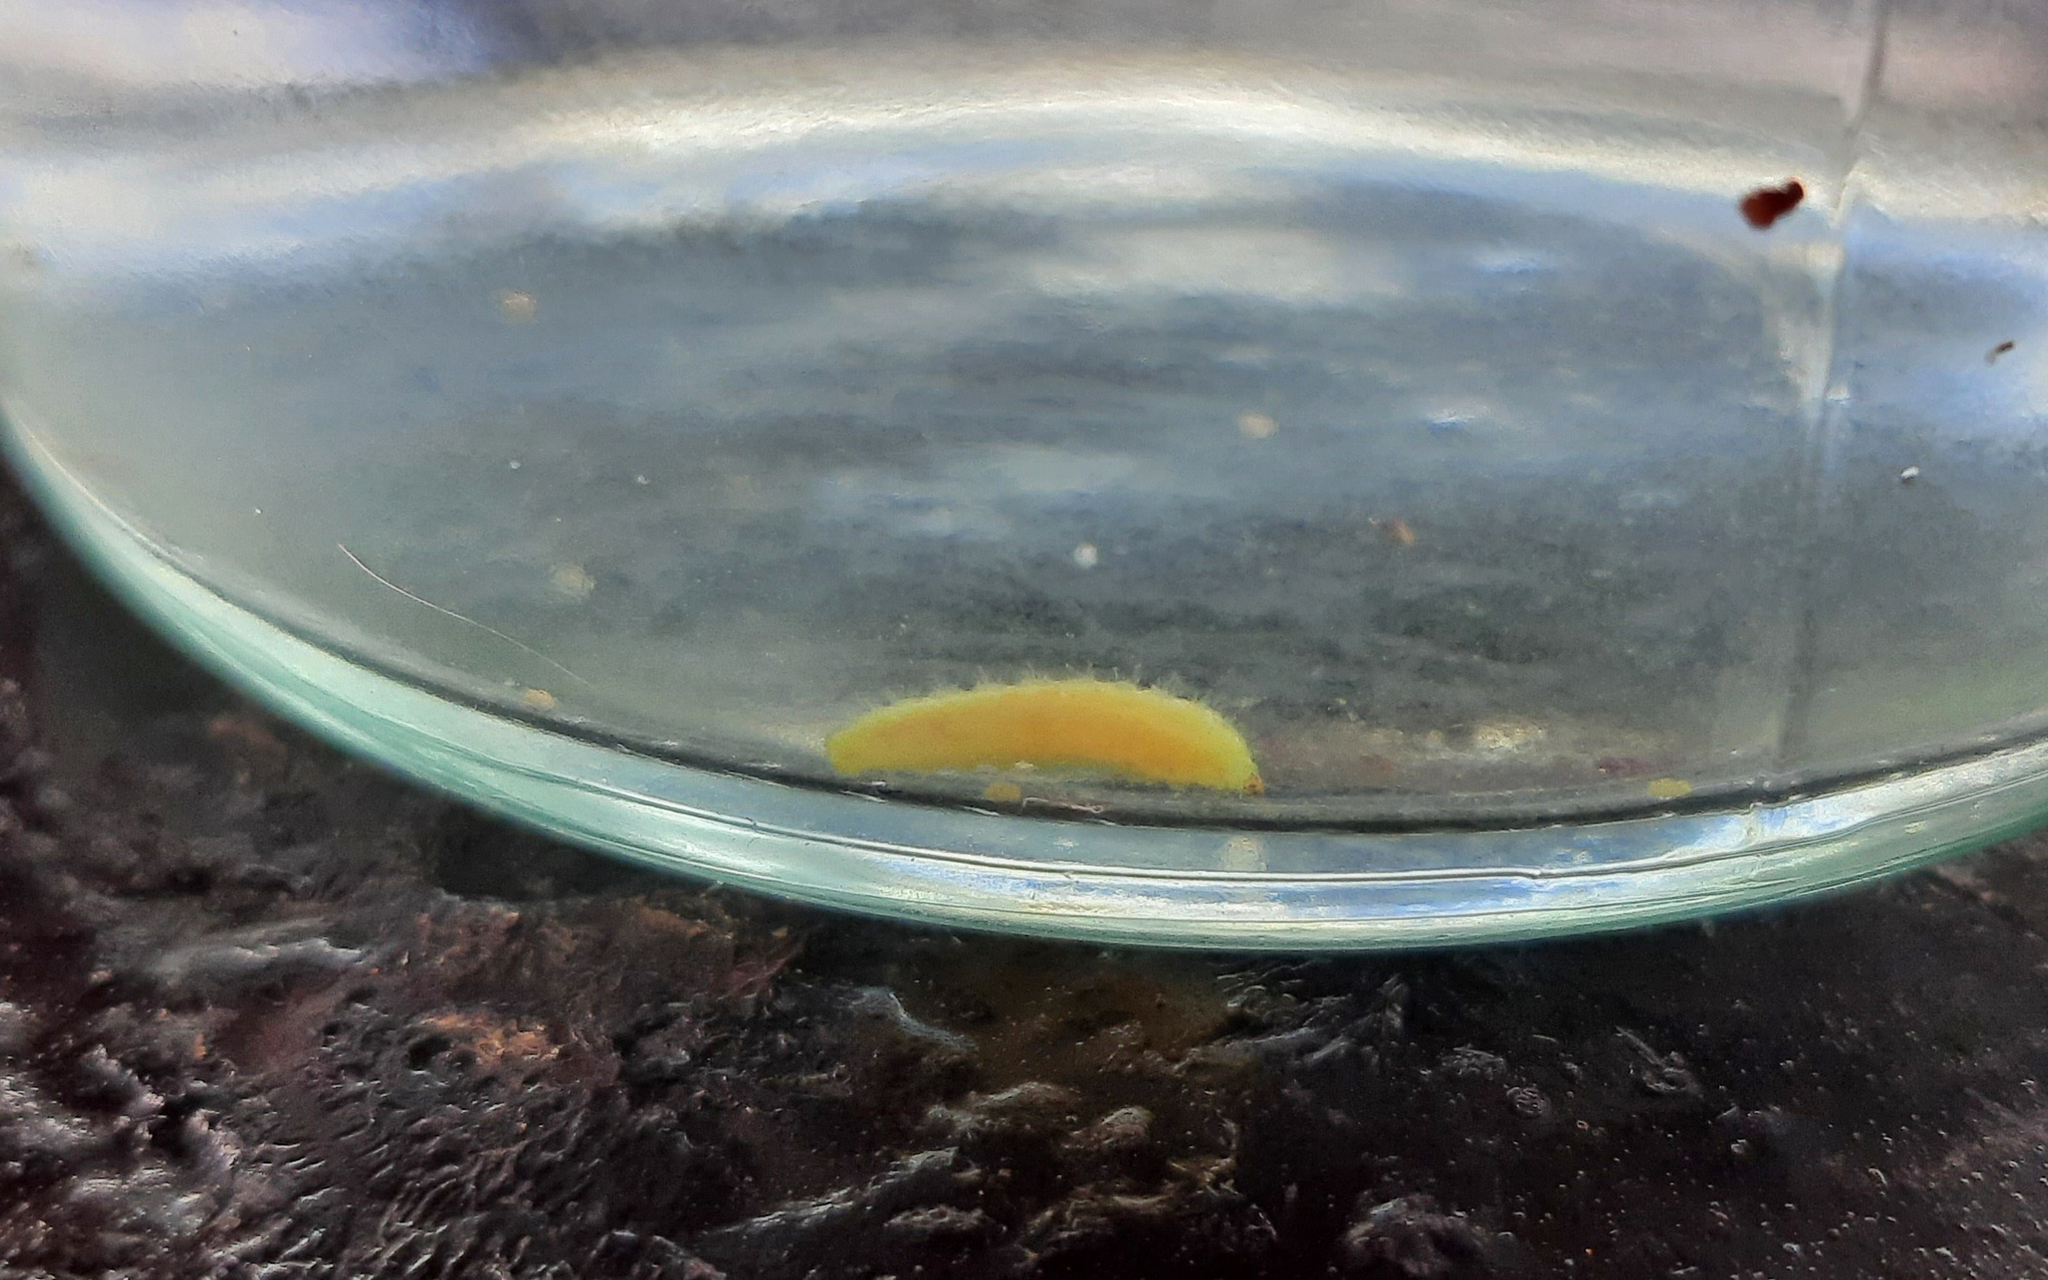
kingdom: Animalia
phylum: Arthropoda
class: Insecta
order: Lepidoptera
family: Lycaenidae
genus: Cacyreus
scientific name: Cacyreus marshalli
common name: Geranium bronze
